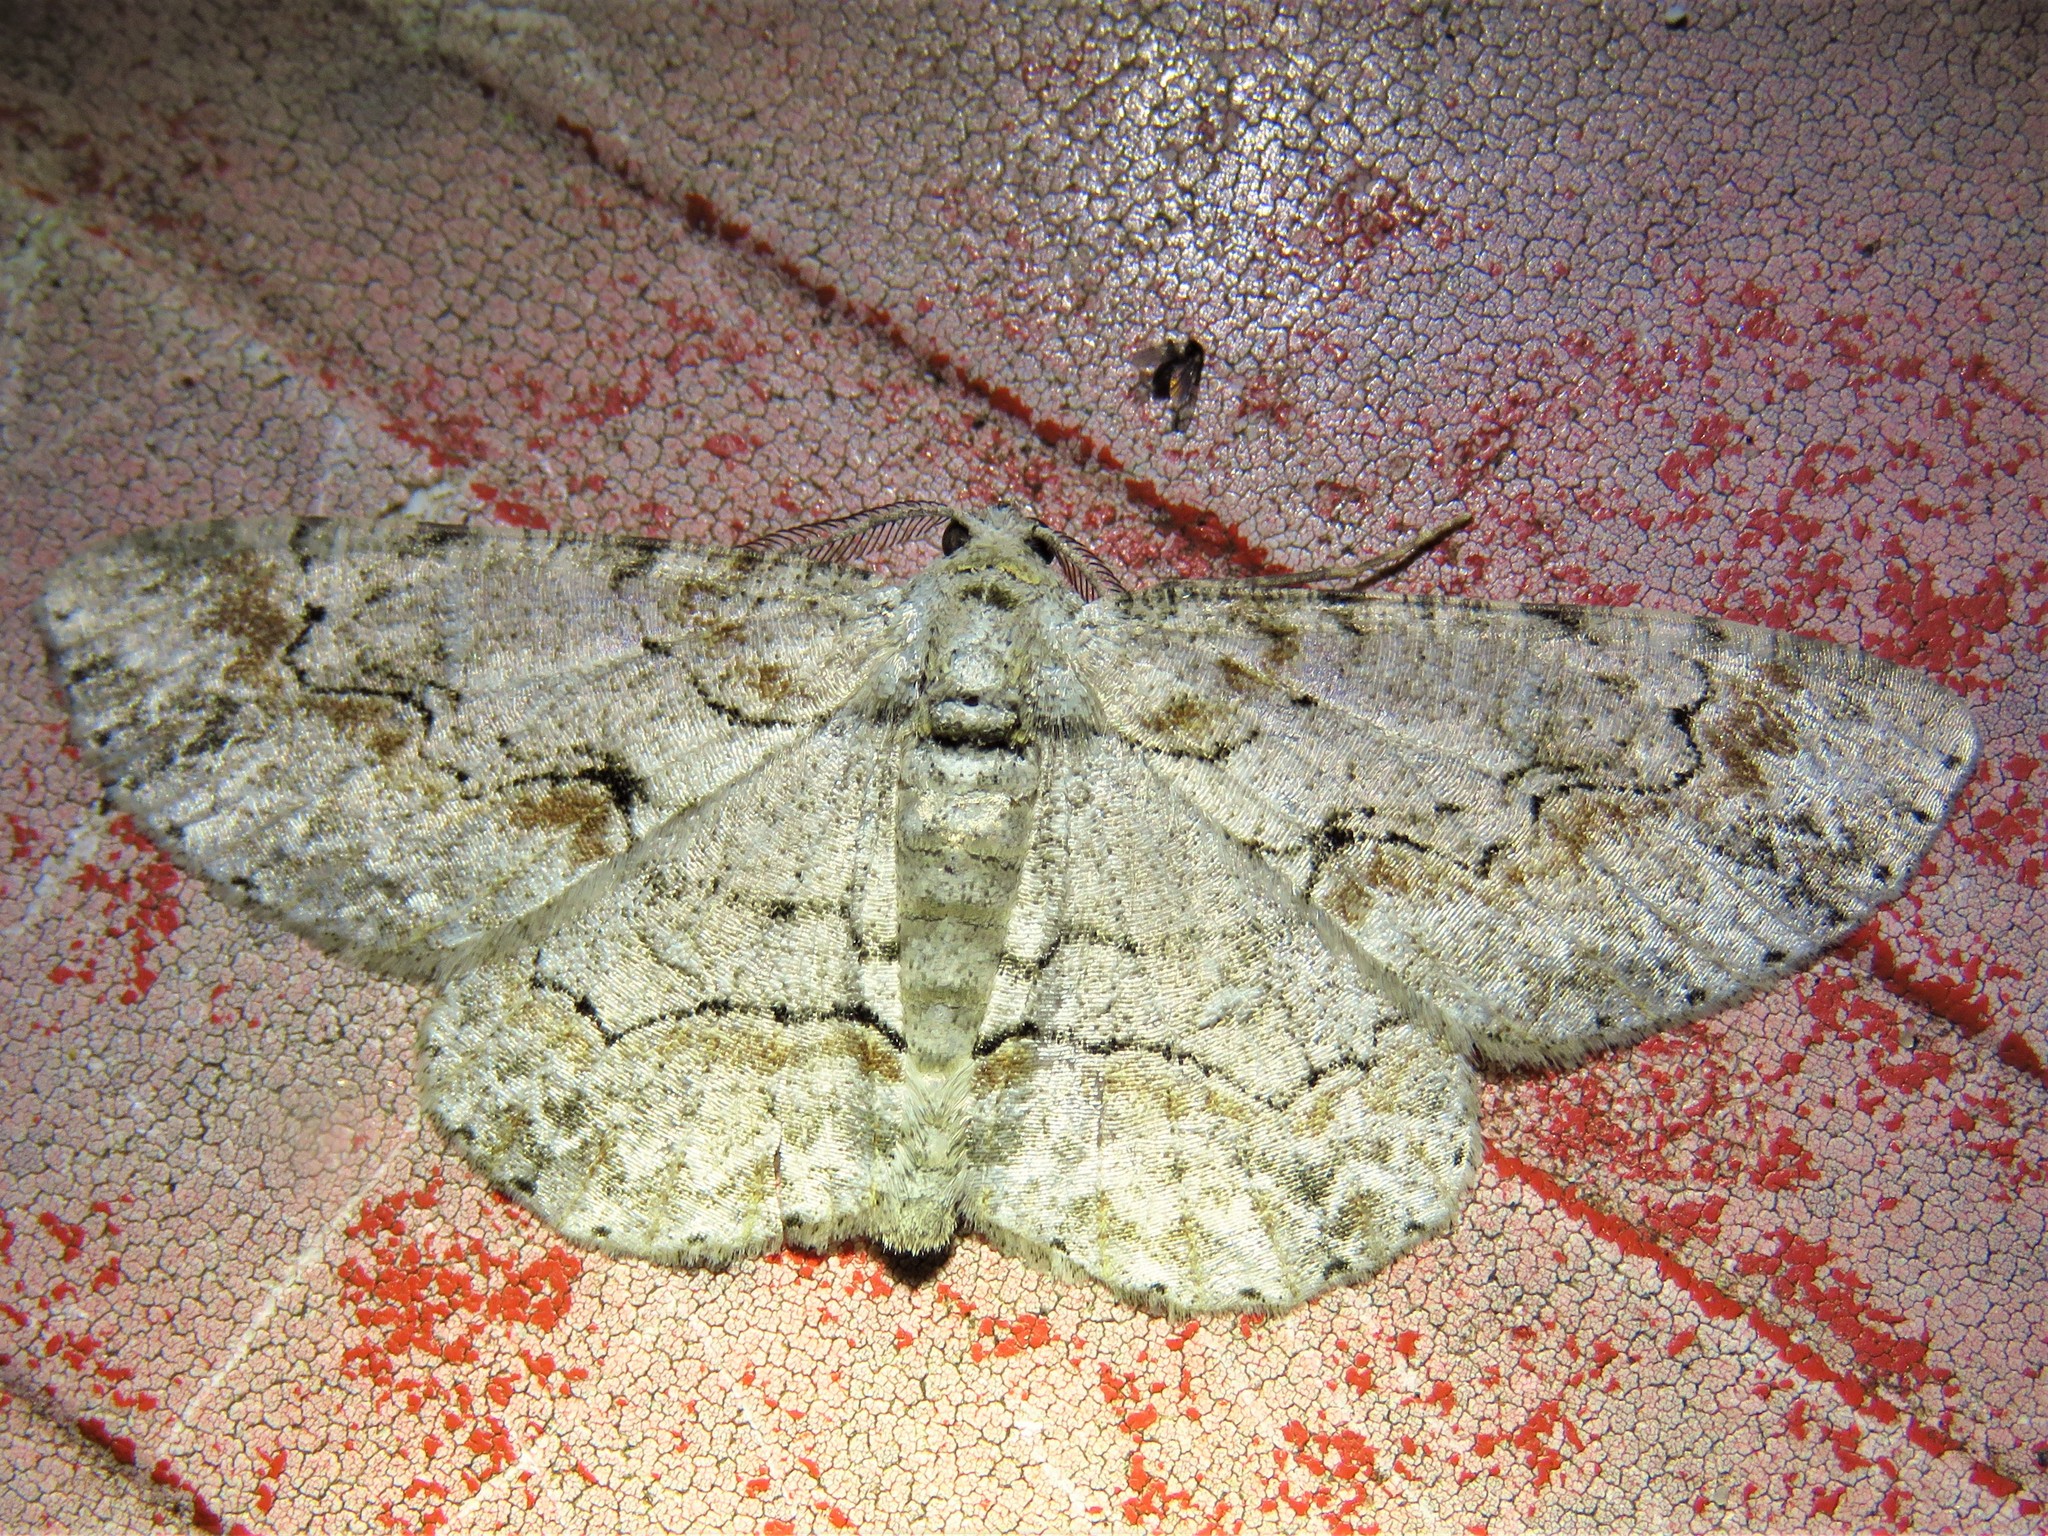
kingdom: Animalia
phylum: Arthropoda
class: Insecta
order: Lepidoptera
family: Geometridae
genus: Iridopsis
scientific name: Iridopsis defectaria
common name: Brown-shaded gray
